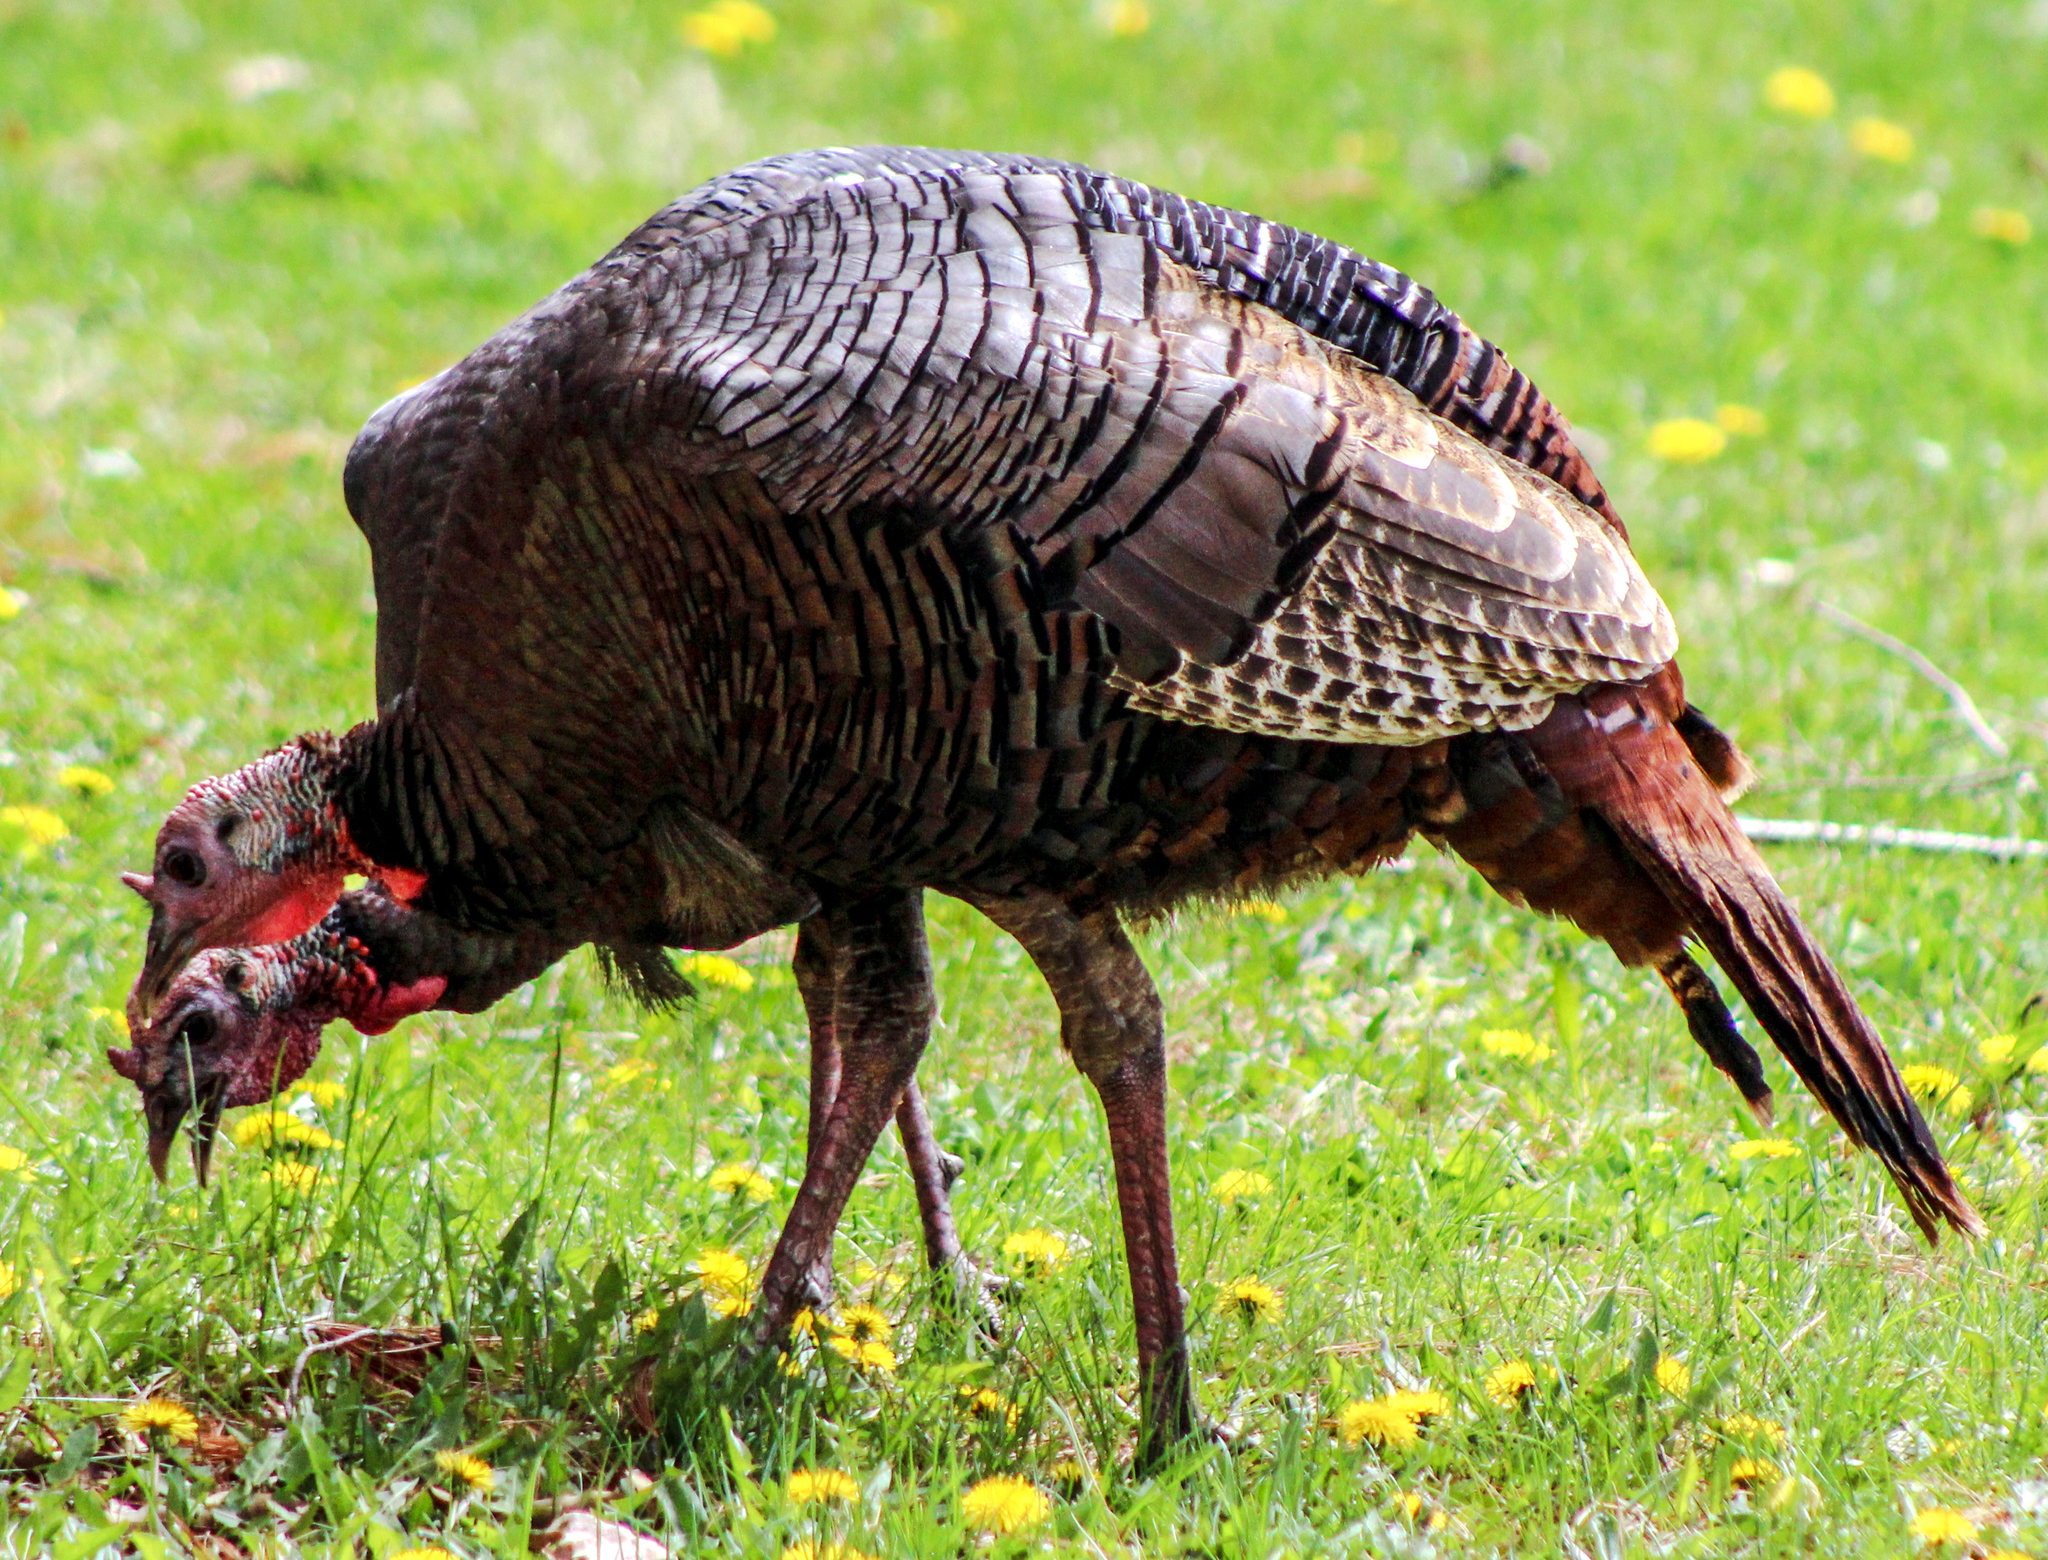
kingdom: Animalia
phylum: Chordata
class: Aves
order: Galliformes
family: Phasianidae
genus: Meleagris
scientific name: Meleagris gallopavo
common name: Wild turkey
